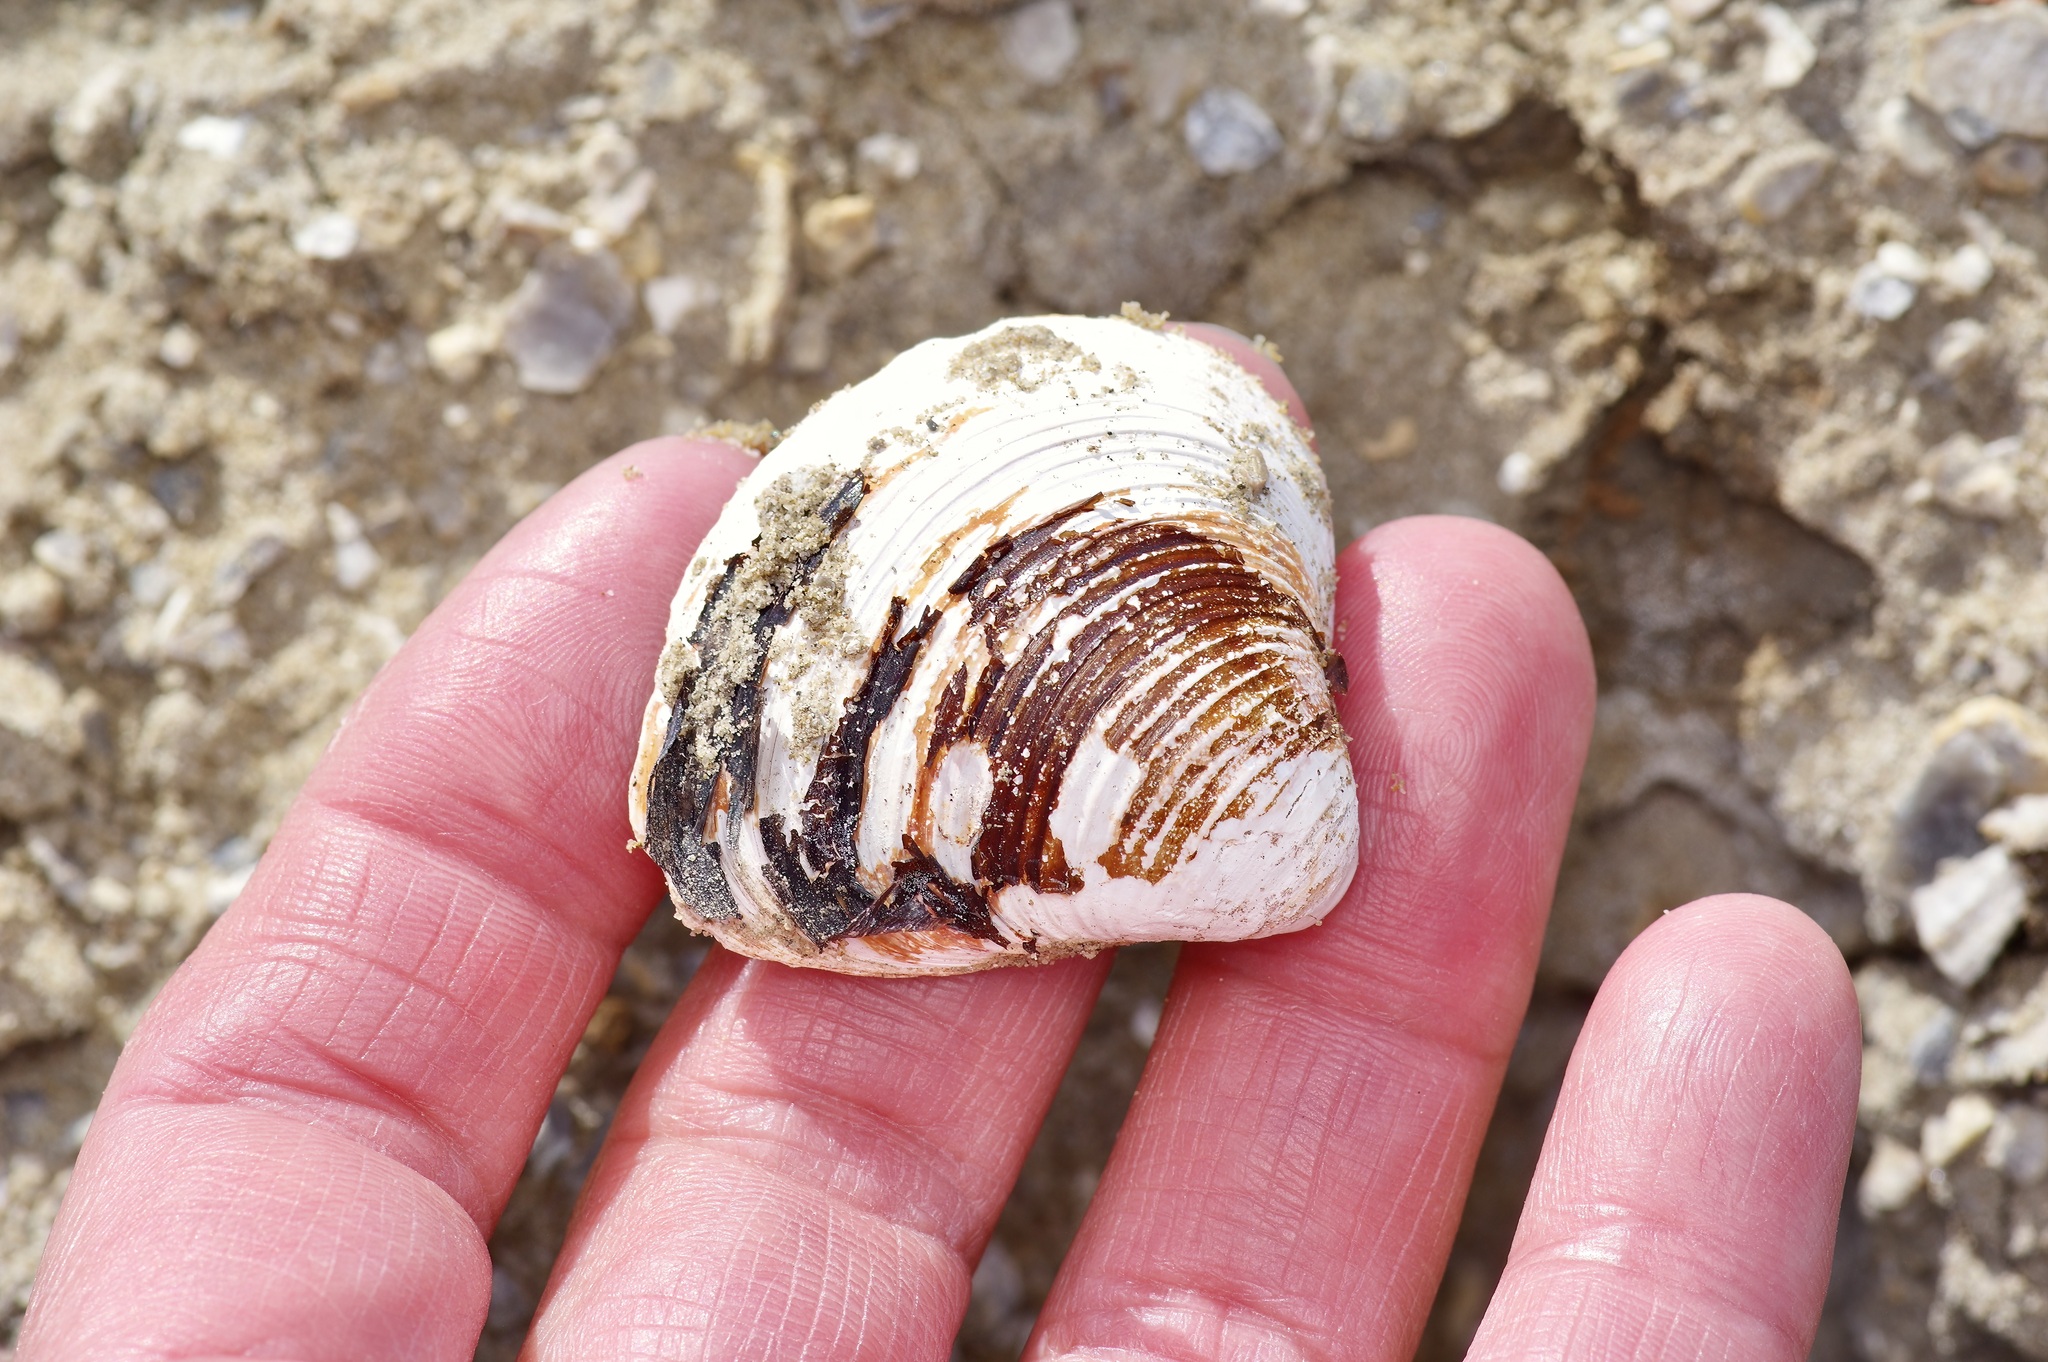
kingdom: Animalia
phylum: Mollusca
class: Bivalvia
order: Venerida
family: Cyrenidae
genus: Corbicula
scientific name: Corbicula fluminea
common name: Asian clam
